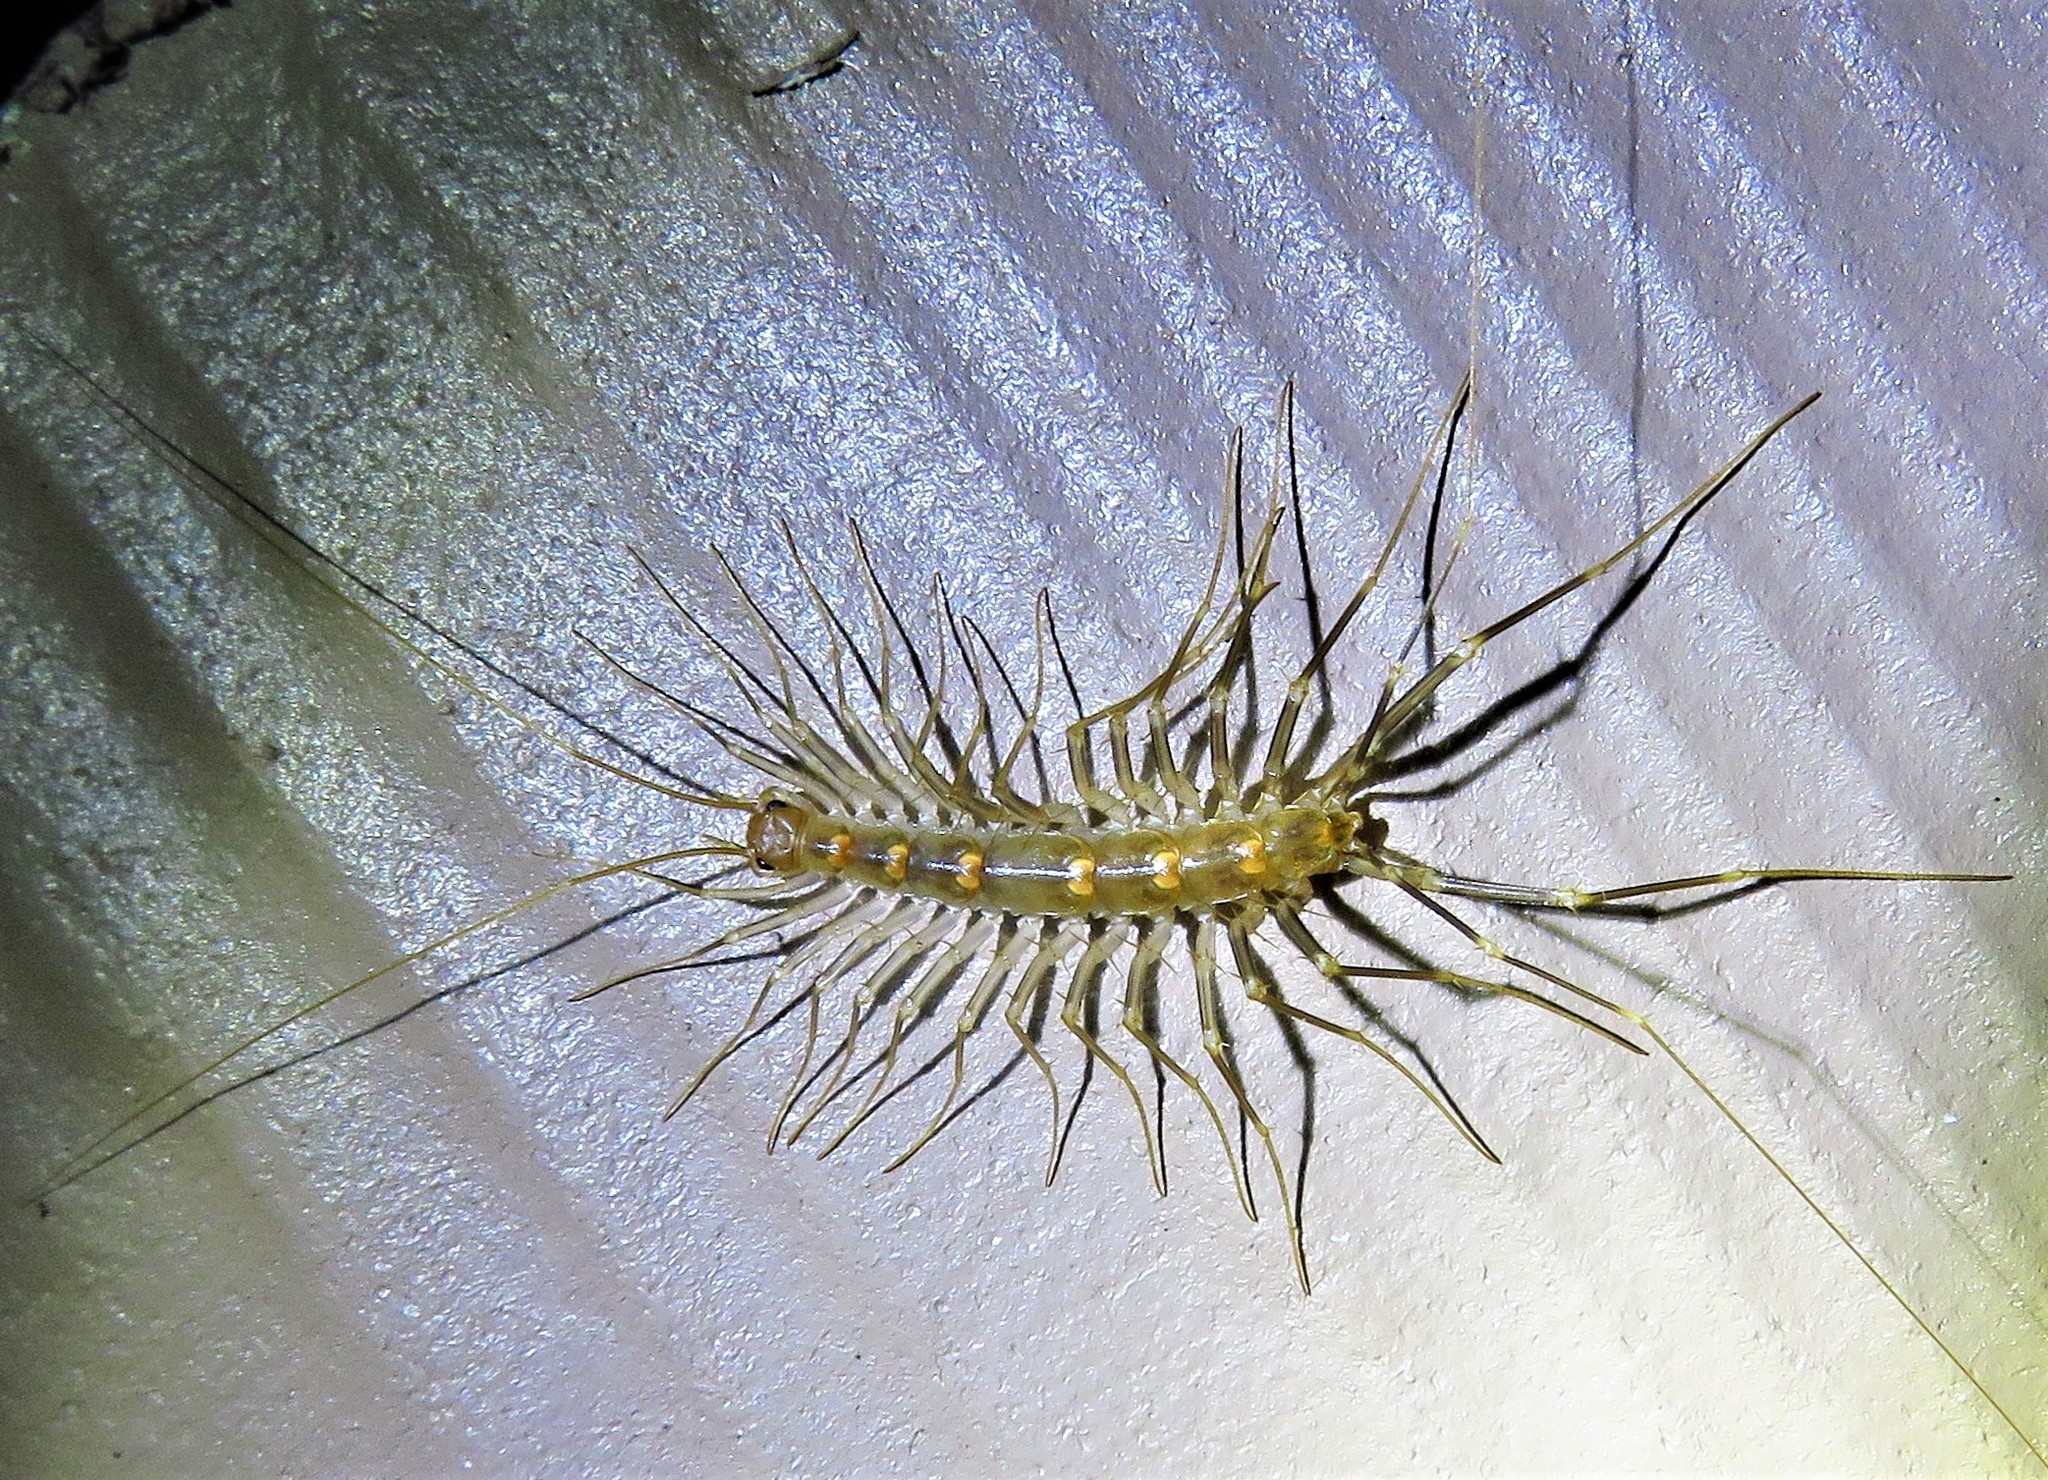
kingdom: Animalia
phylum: Arthropoda
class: Chilopoda
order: Scutigeromorpha
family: Scutigeridae
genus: Scutigera
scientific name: Scutigera linceci
